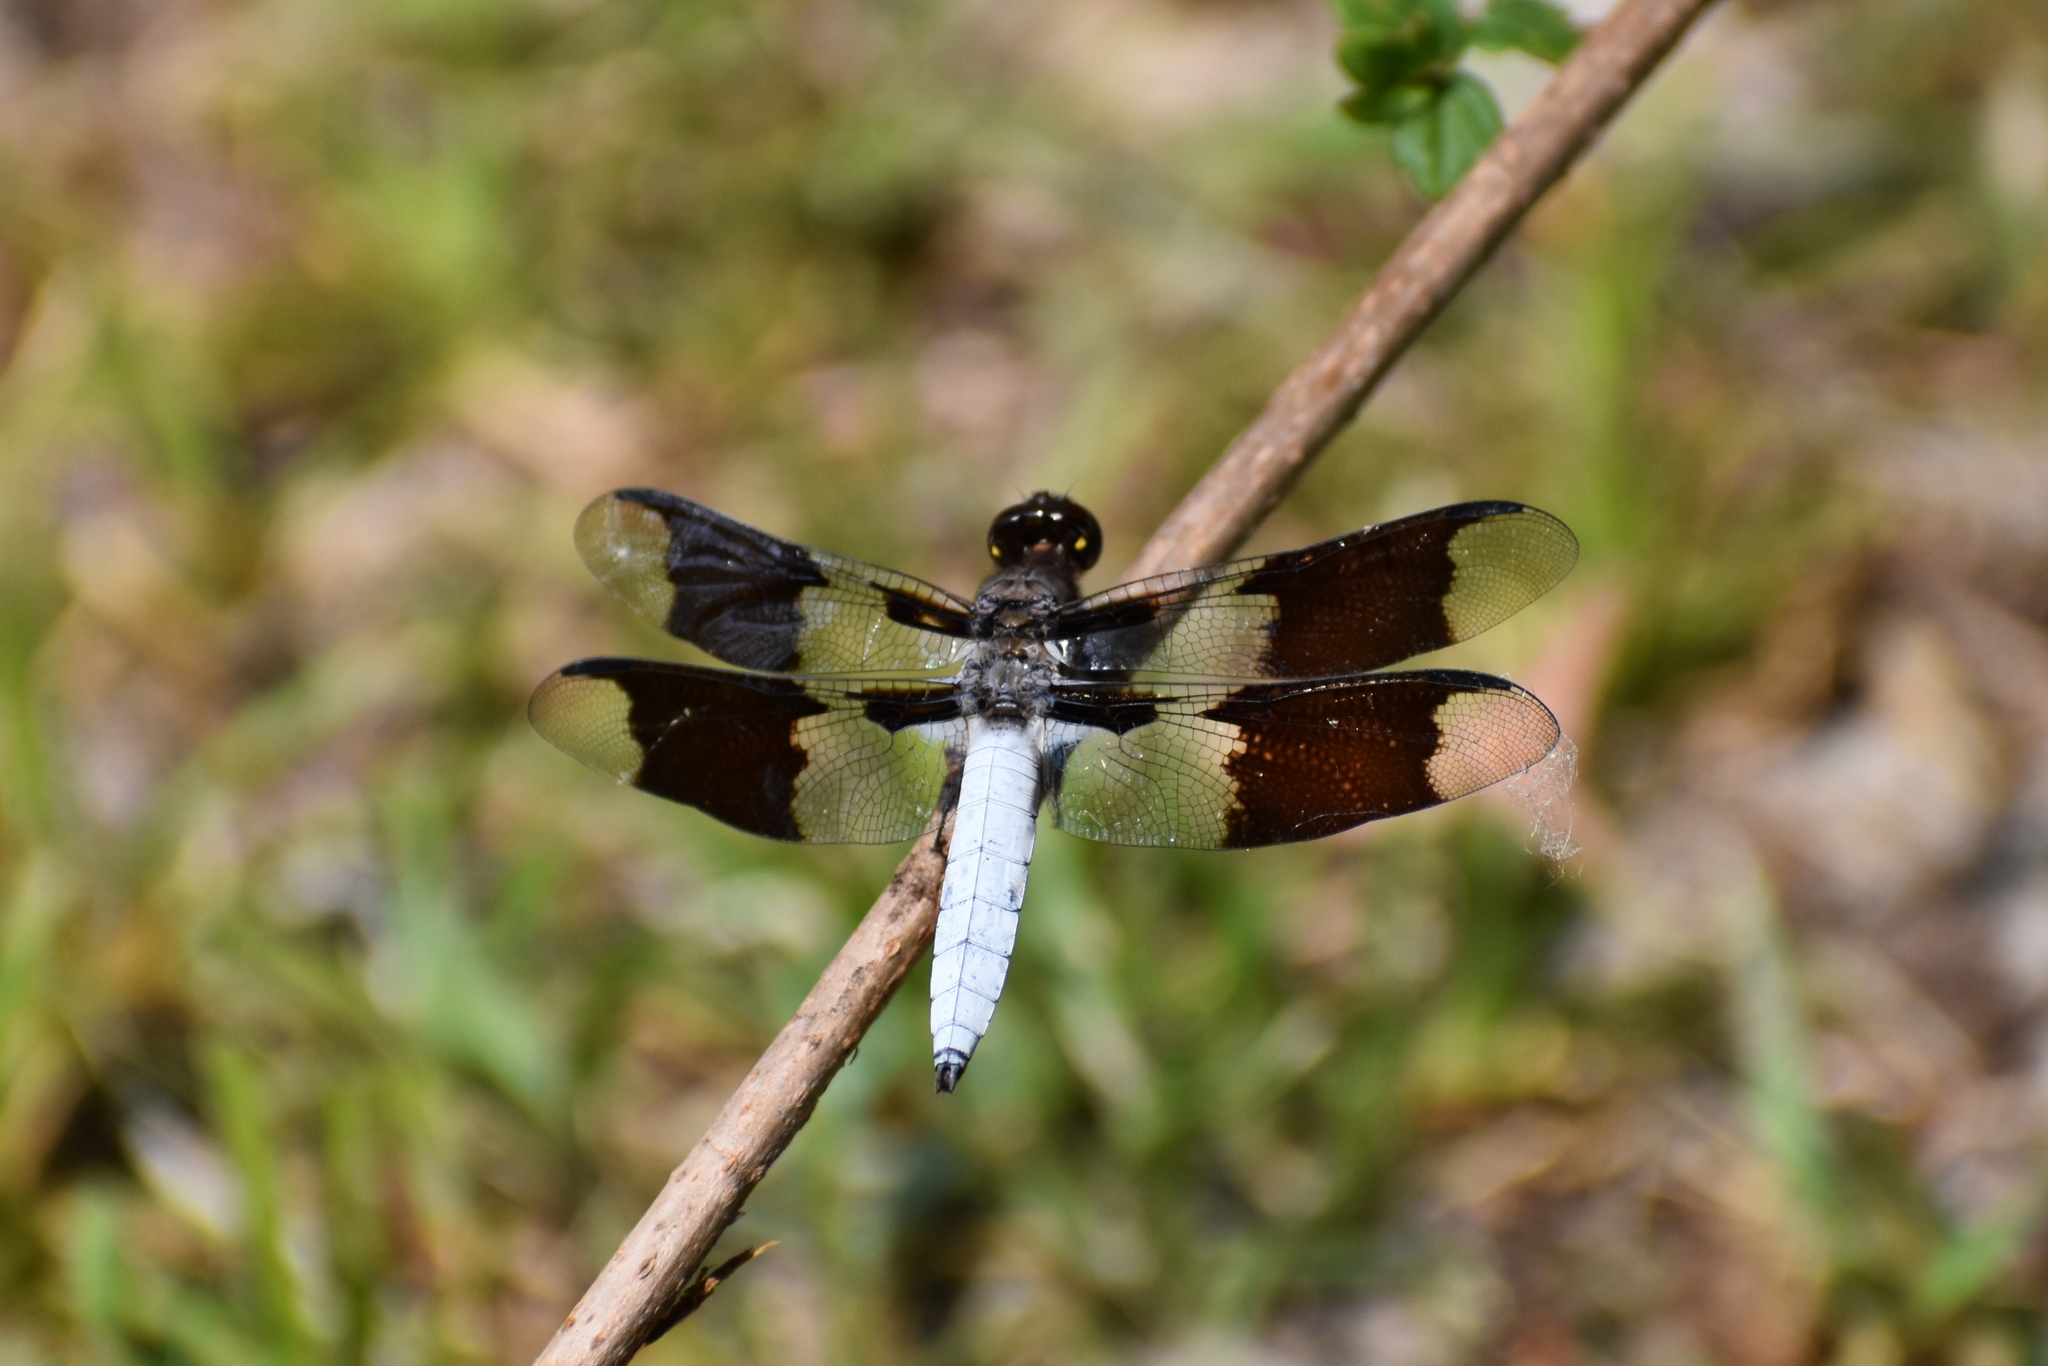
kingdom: Animalia
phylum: Arthropoda
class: Insecta
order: Odonata
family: Libellulidae
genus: Plathemis
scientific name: Plathemis lydia
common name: Common whitetail
